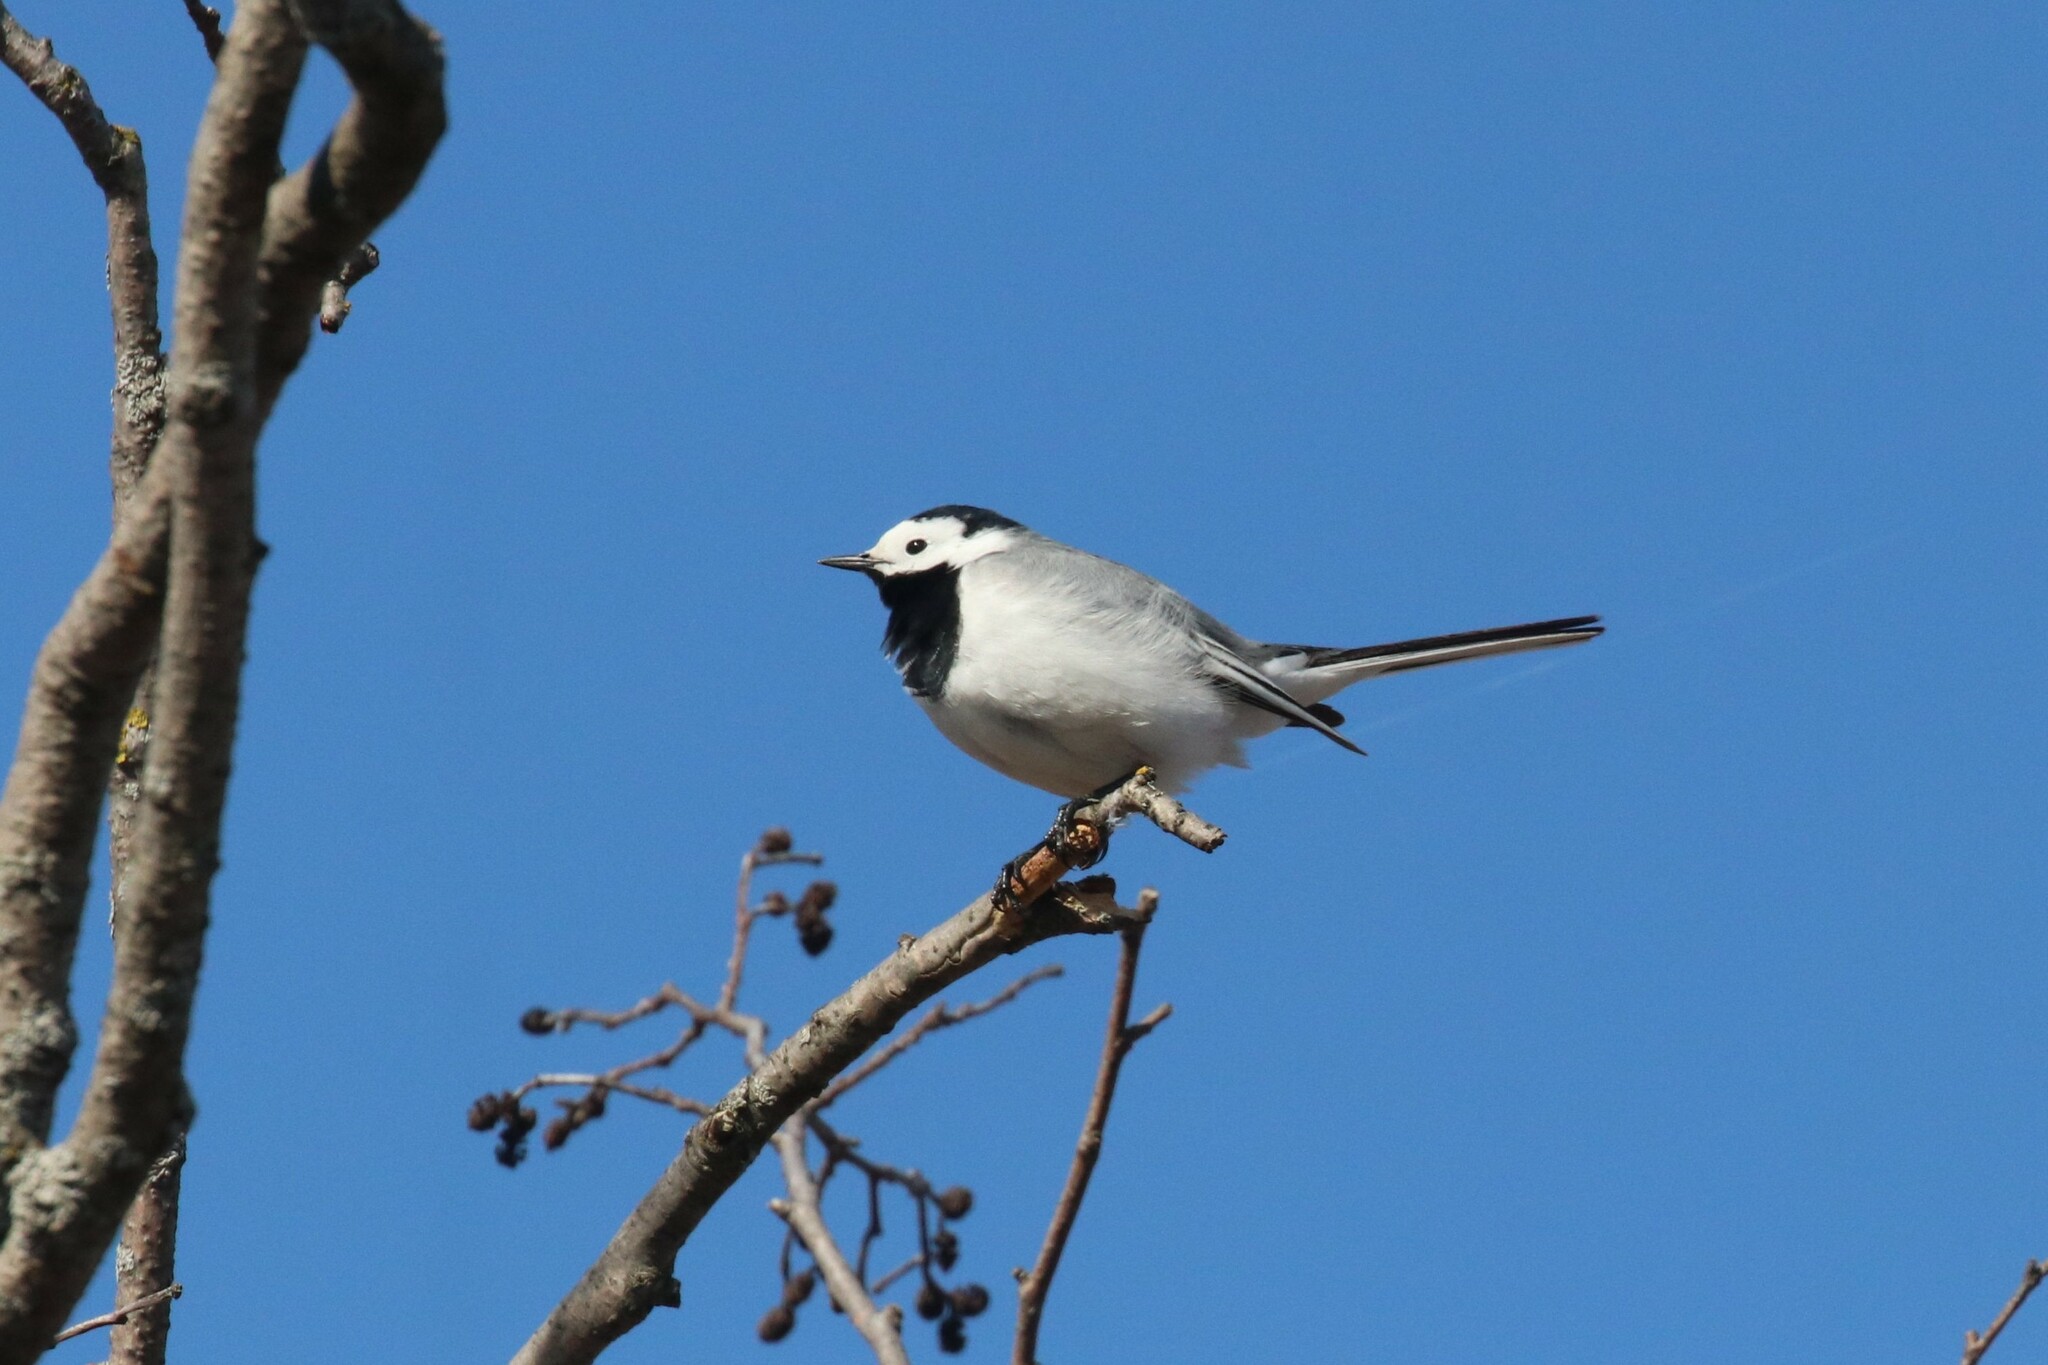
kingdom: Animalia
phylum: Chordata
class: Aves
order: Passeriformes
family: Motacillidae
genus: Motacilla
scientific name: Motacilla alba
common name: White wagtail
